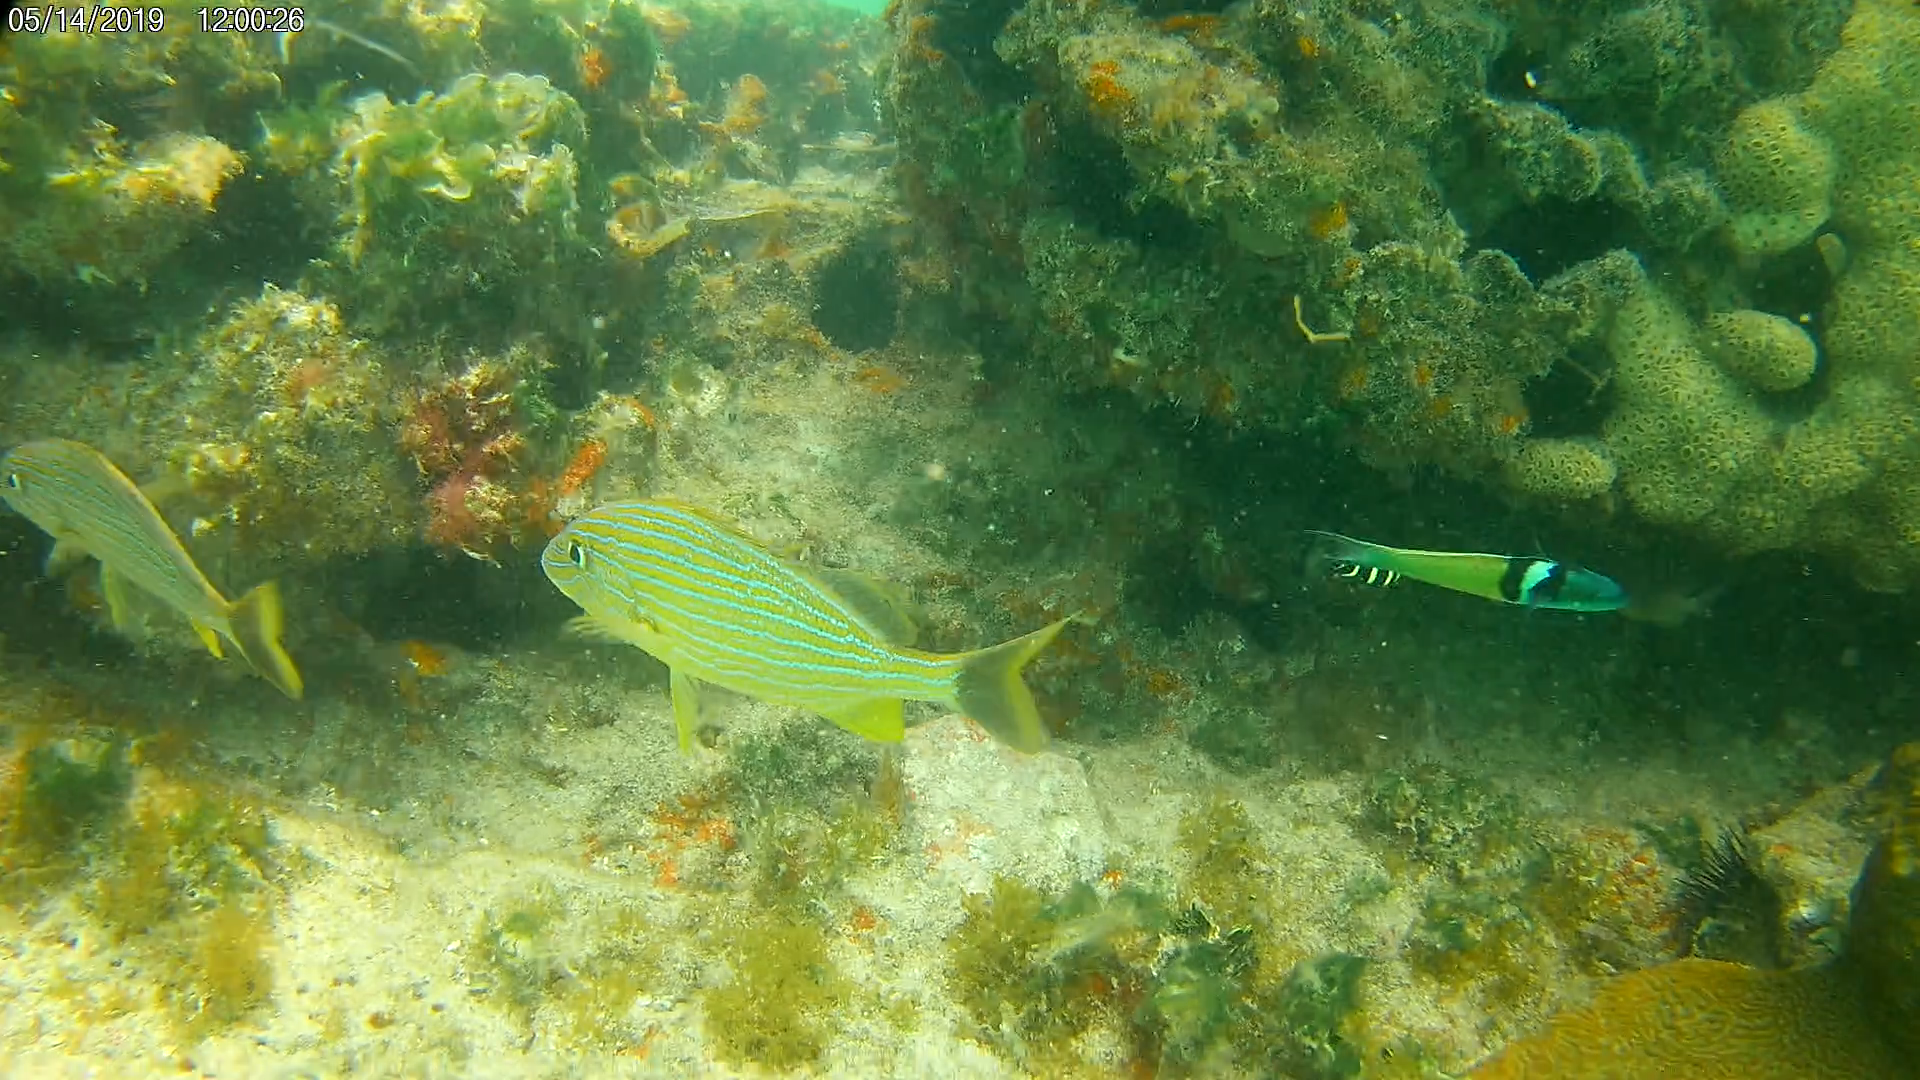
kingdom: Animalia
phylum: Chordata
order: Perciformes
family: Pomacanthidae
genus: Pomacanthus
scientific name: Pomacanthus
